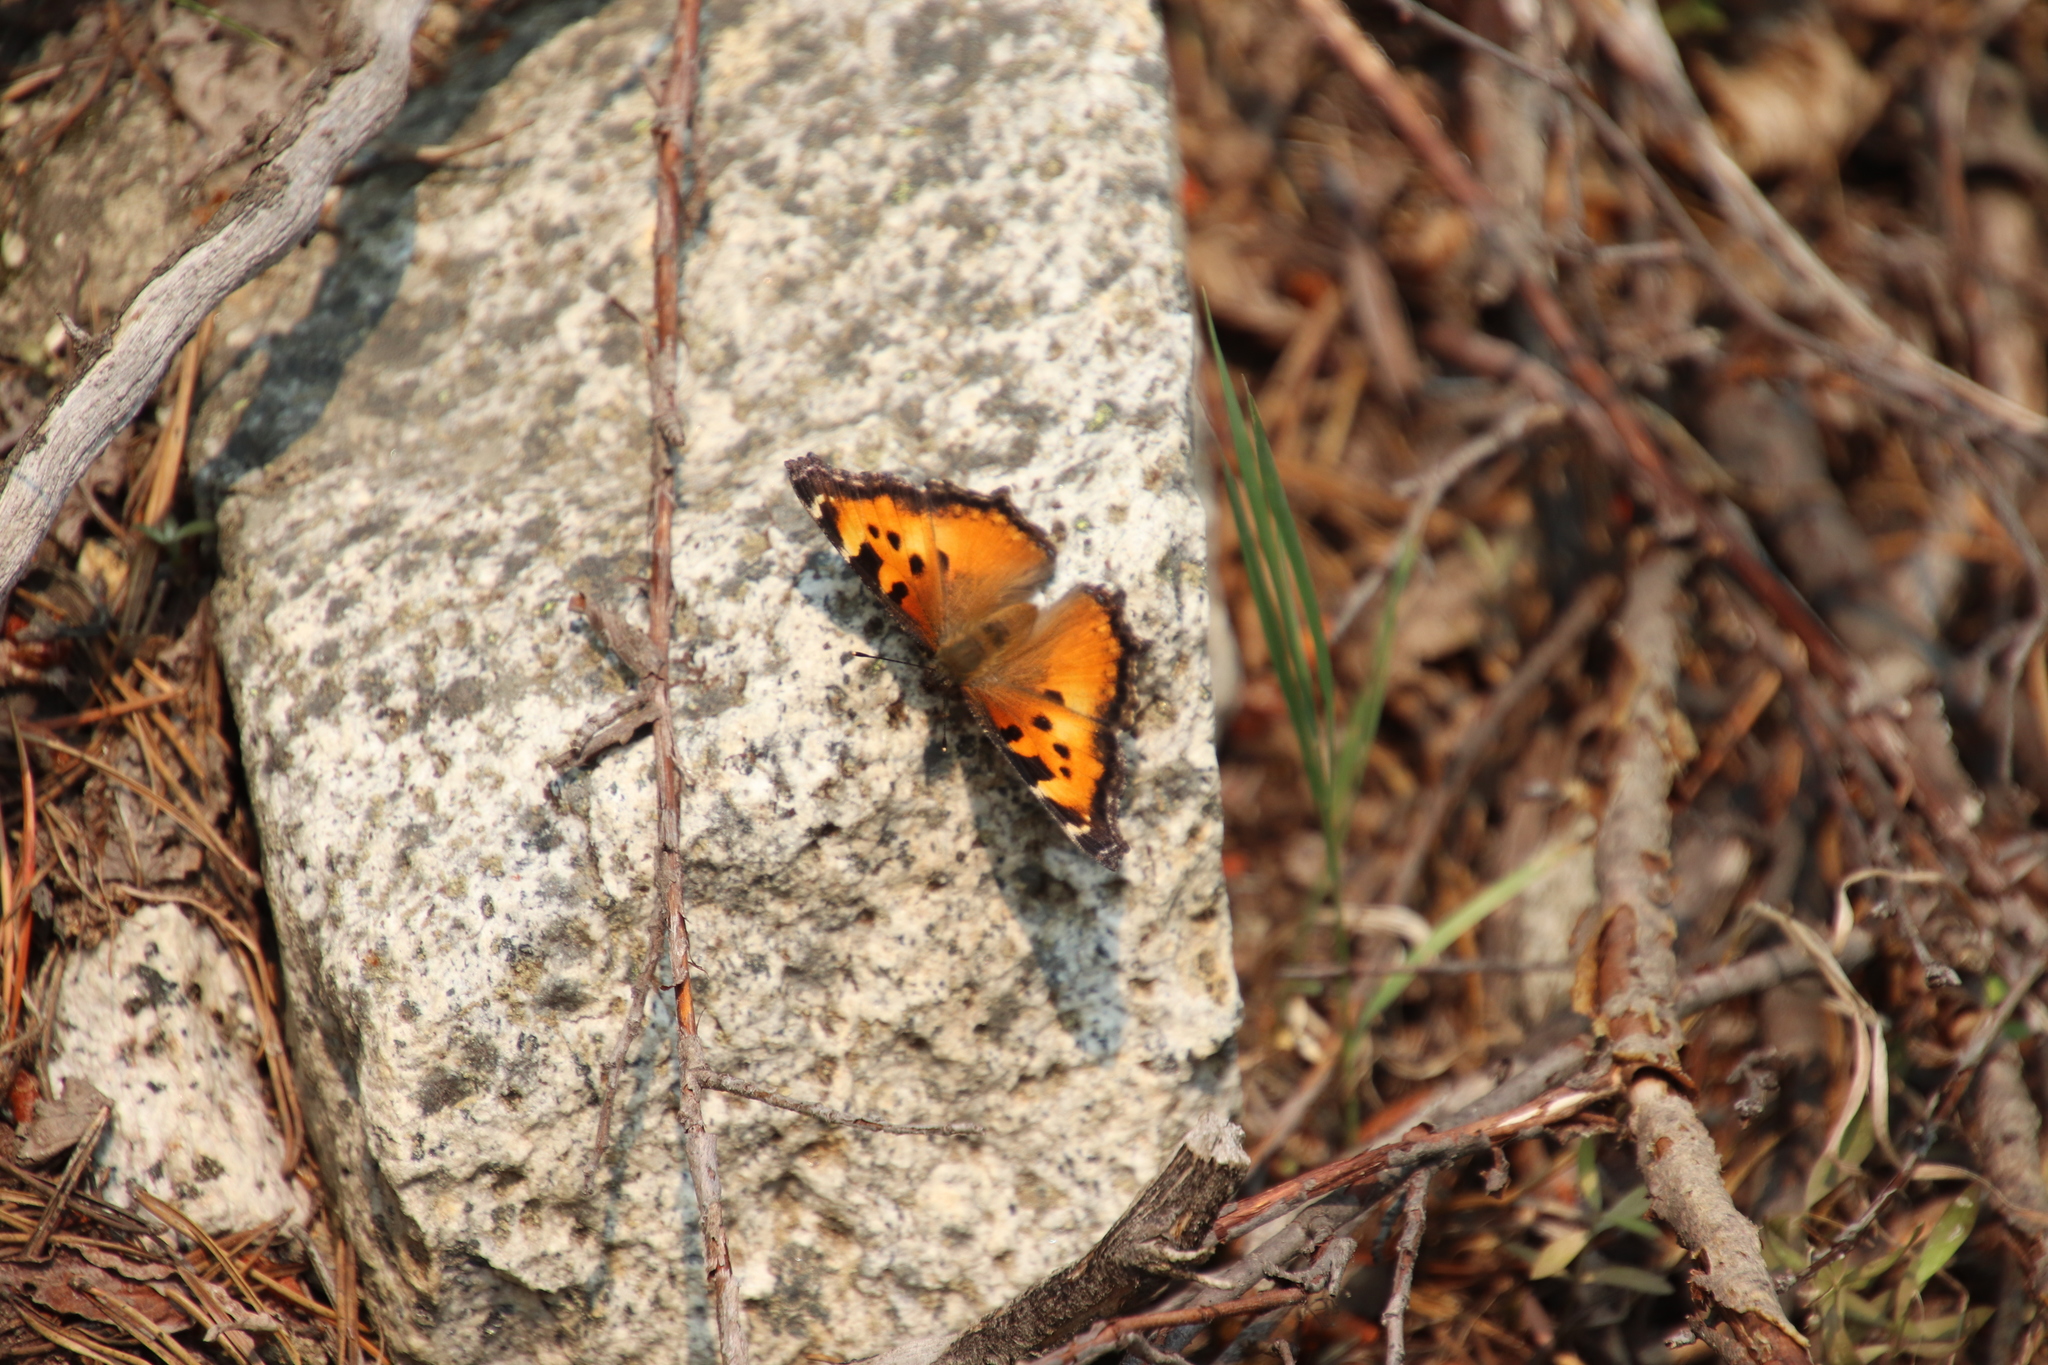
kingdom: Animalia
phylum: Arthropoda
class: Insecta
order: Lepidoptera
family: Nymphalidae
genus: Nymphalis
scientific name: Nymphalis californica
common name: California tortoiseshell
